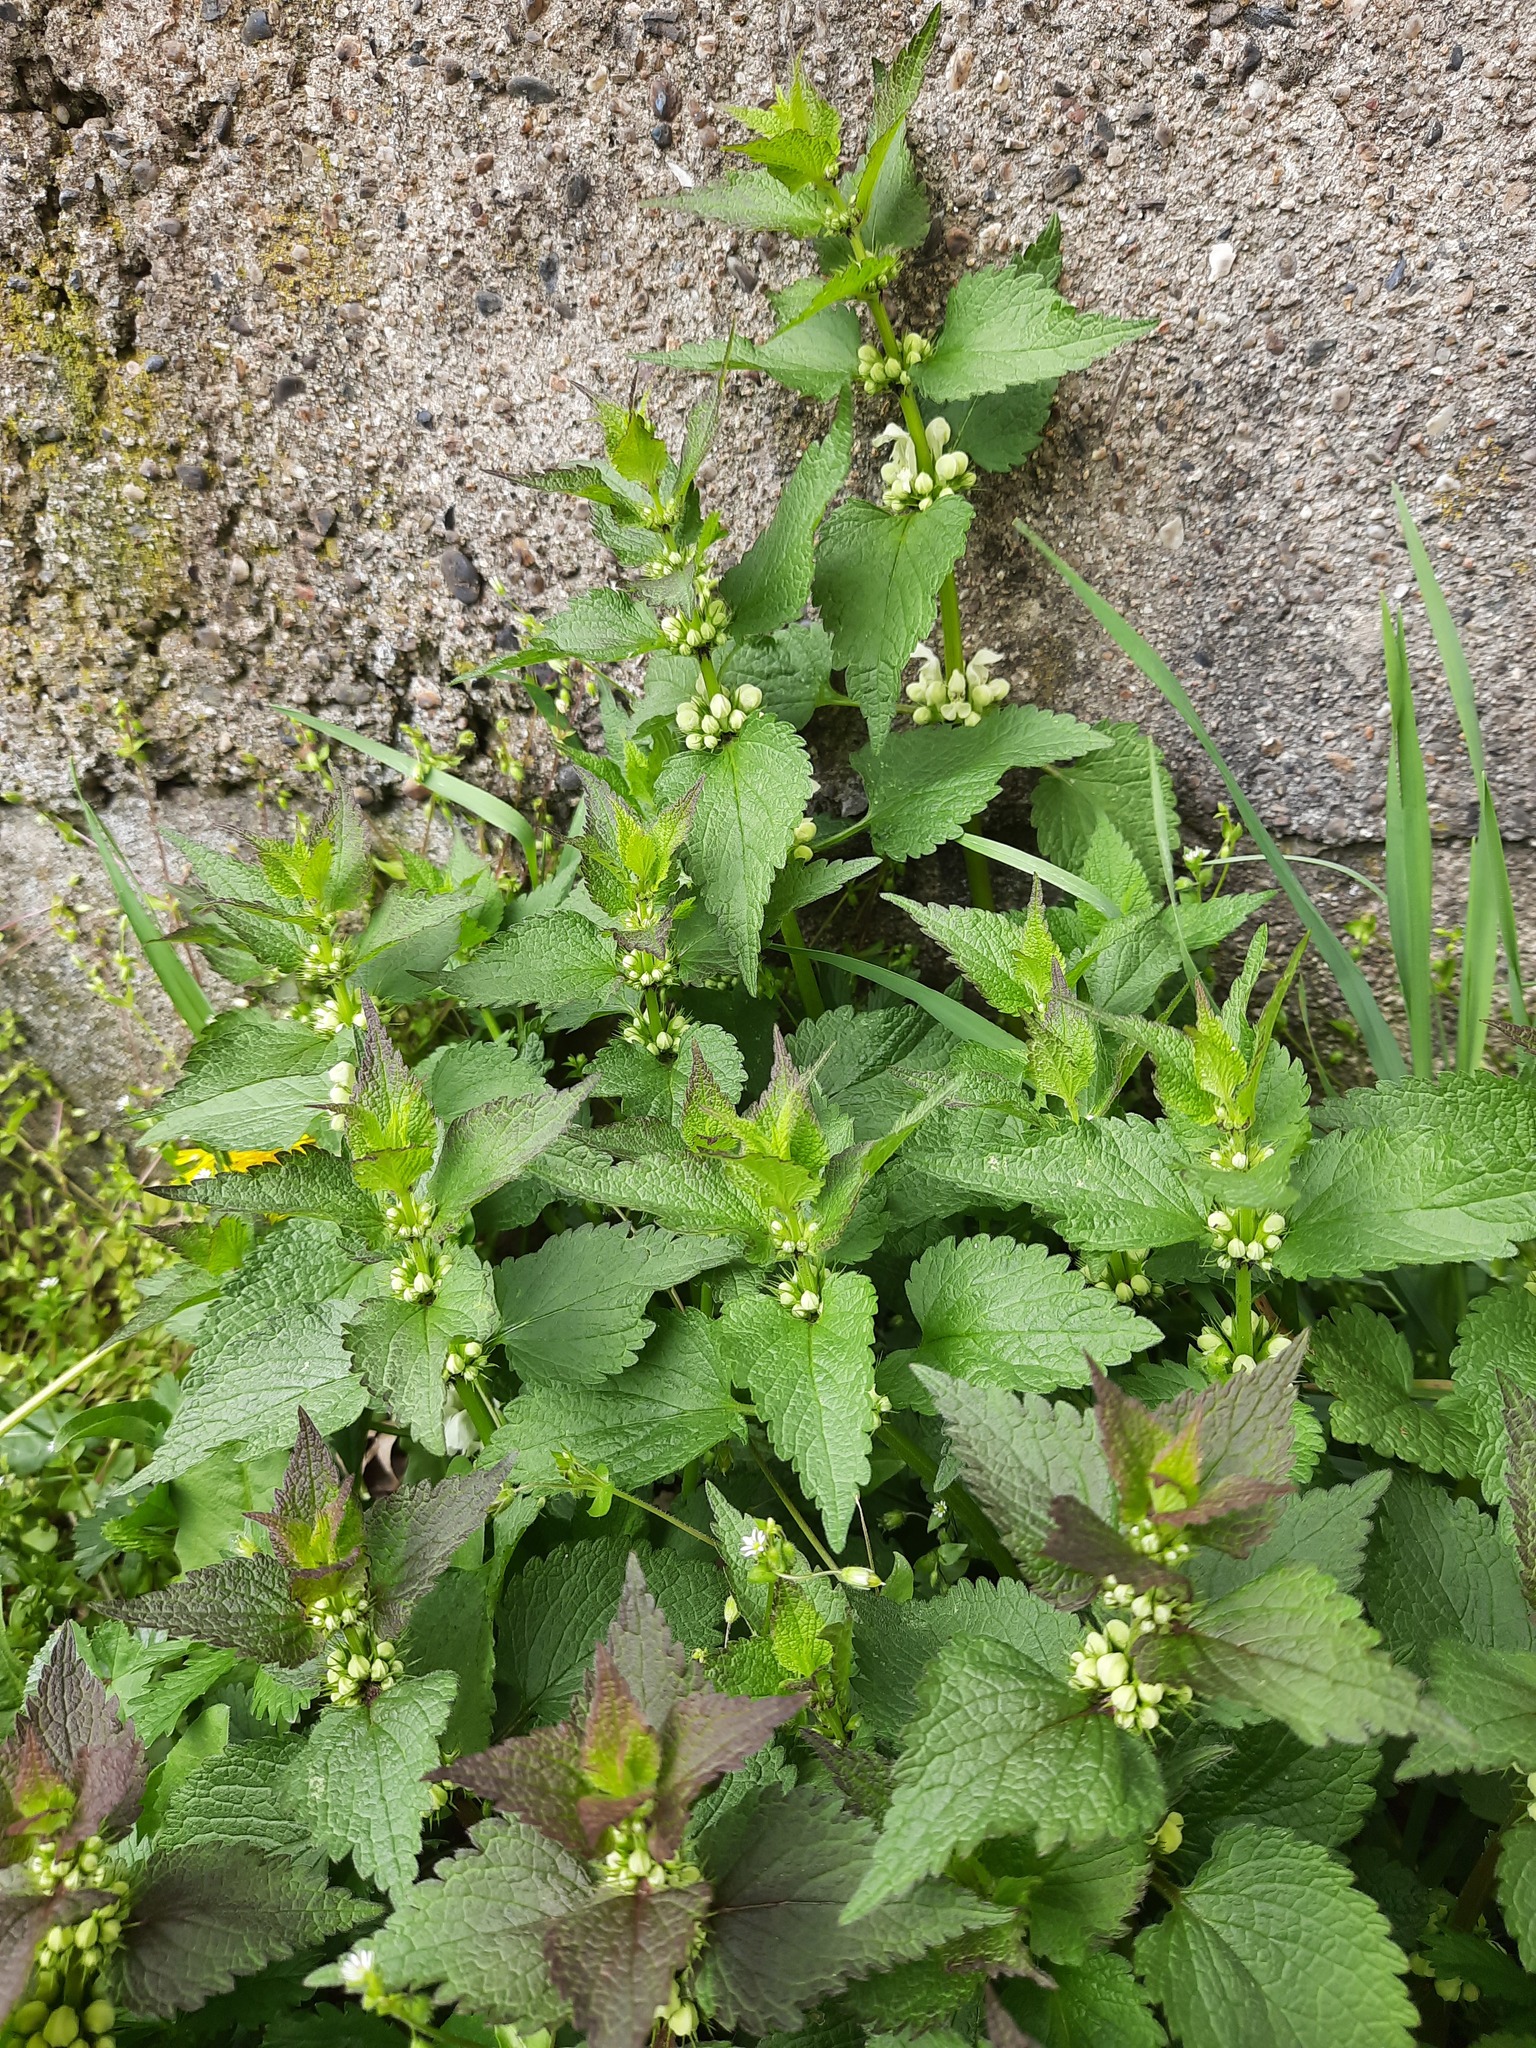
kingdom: Plantae
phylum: Tracheophyta
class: Magnoliopsida
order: Lamiales
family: Lamiaceae
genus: Lamium
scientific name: Lamium album
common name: White dead-nettle
